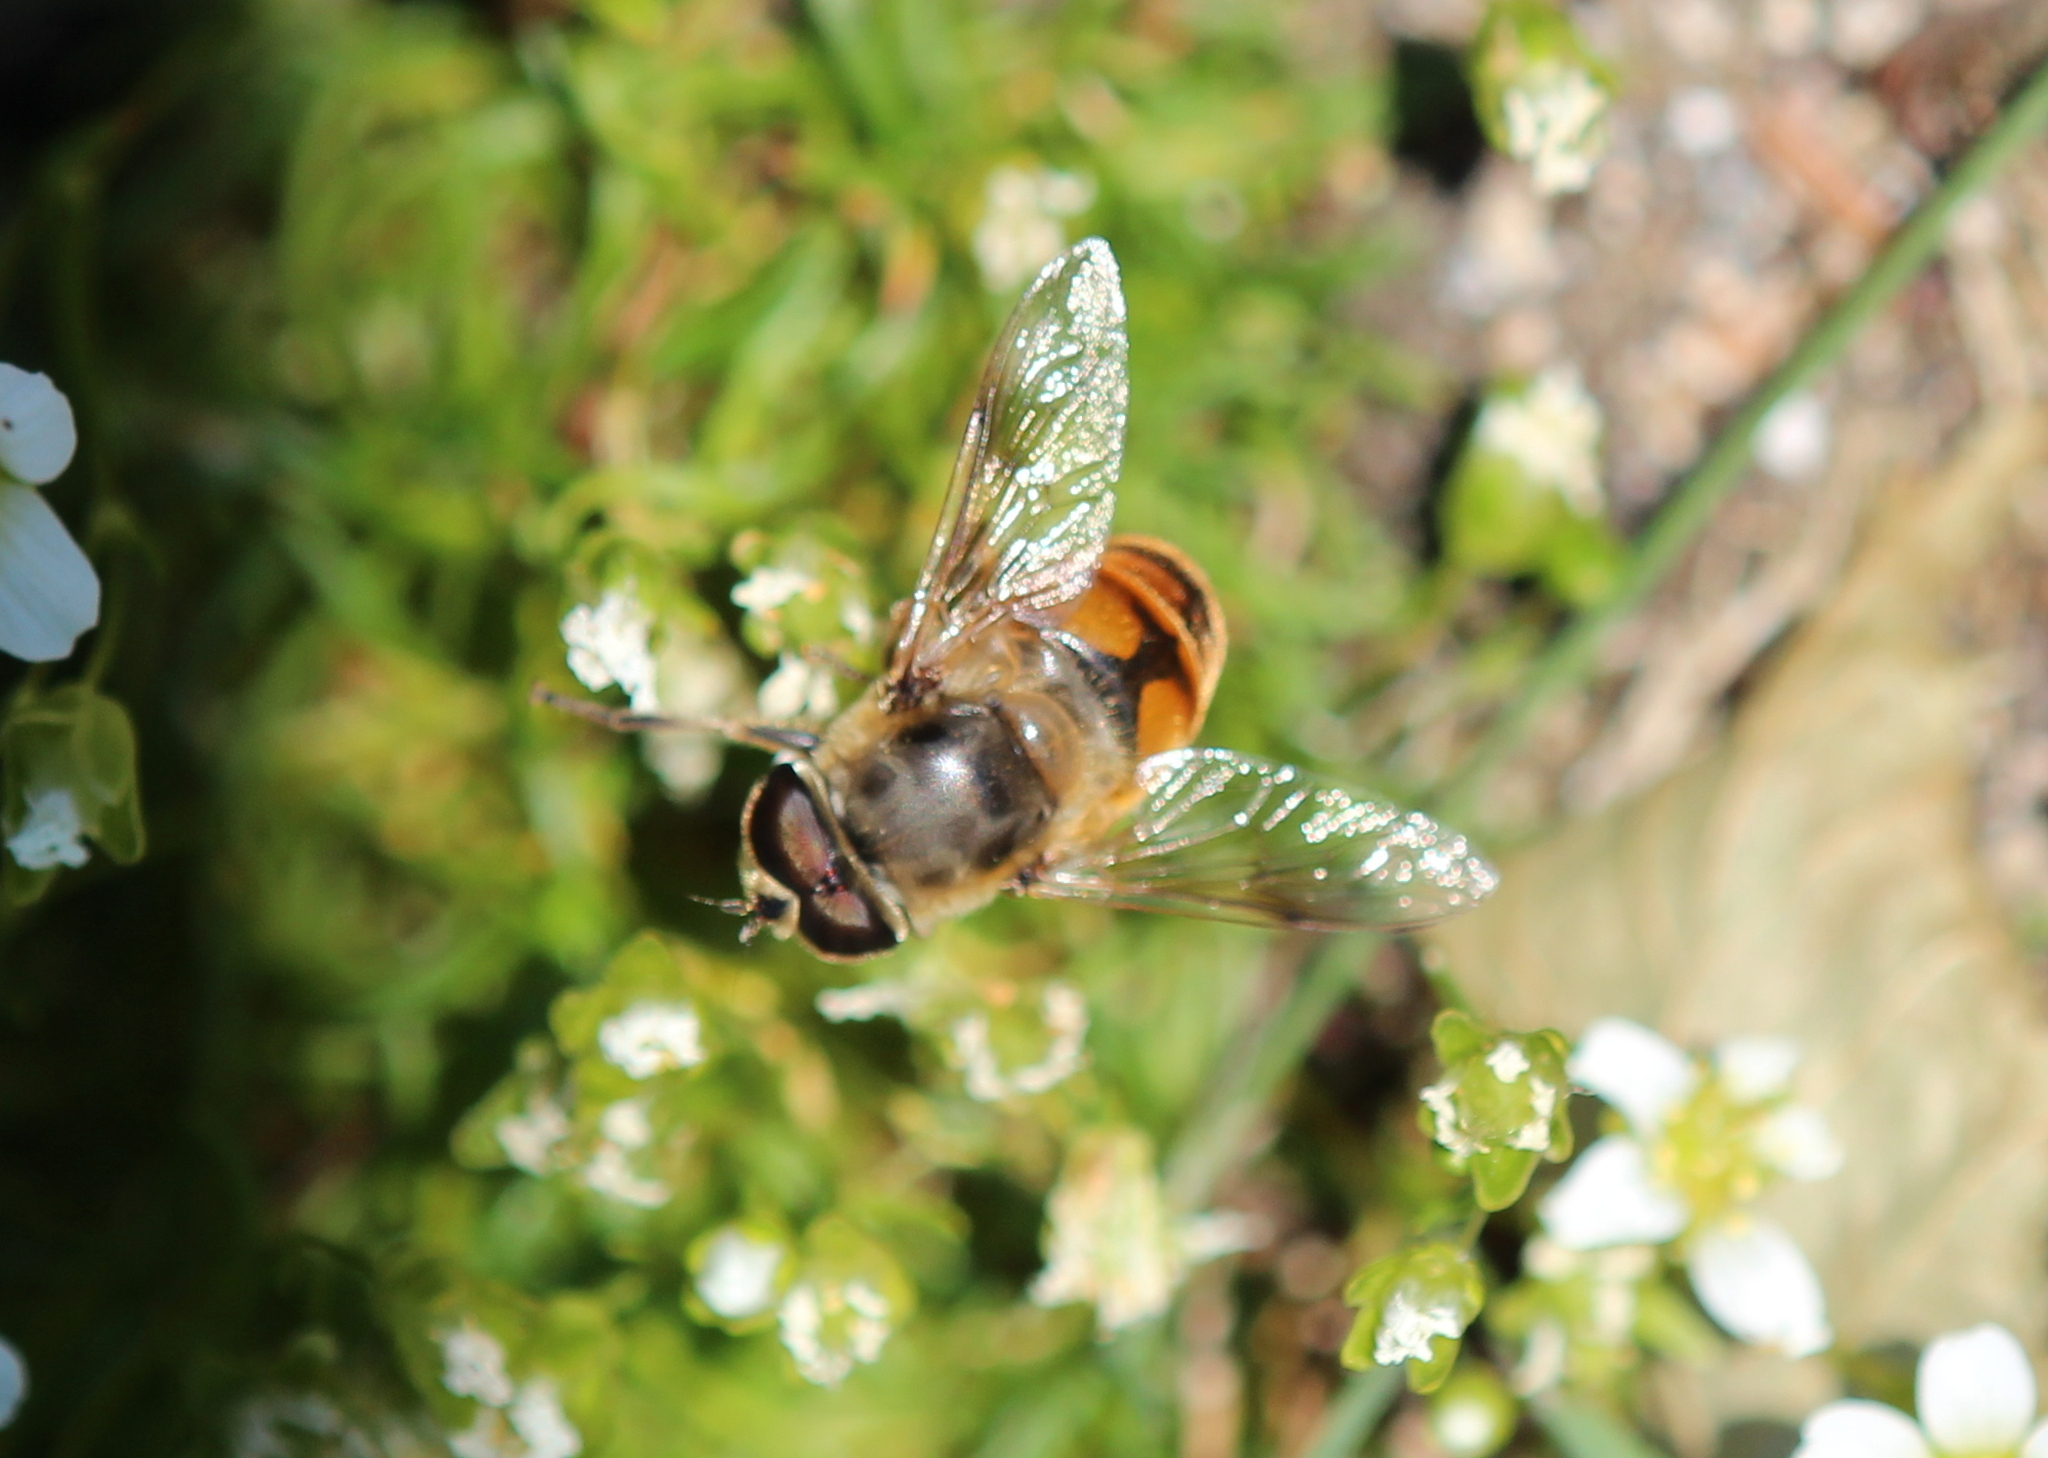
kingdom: Animalia
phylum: Arthropoda
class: Insecta
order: Diptera
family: Syrphidae
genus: Eristalis
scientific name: Eristalis tenax
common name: Drone fly
